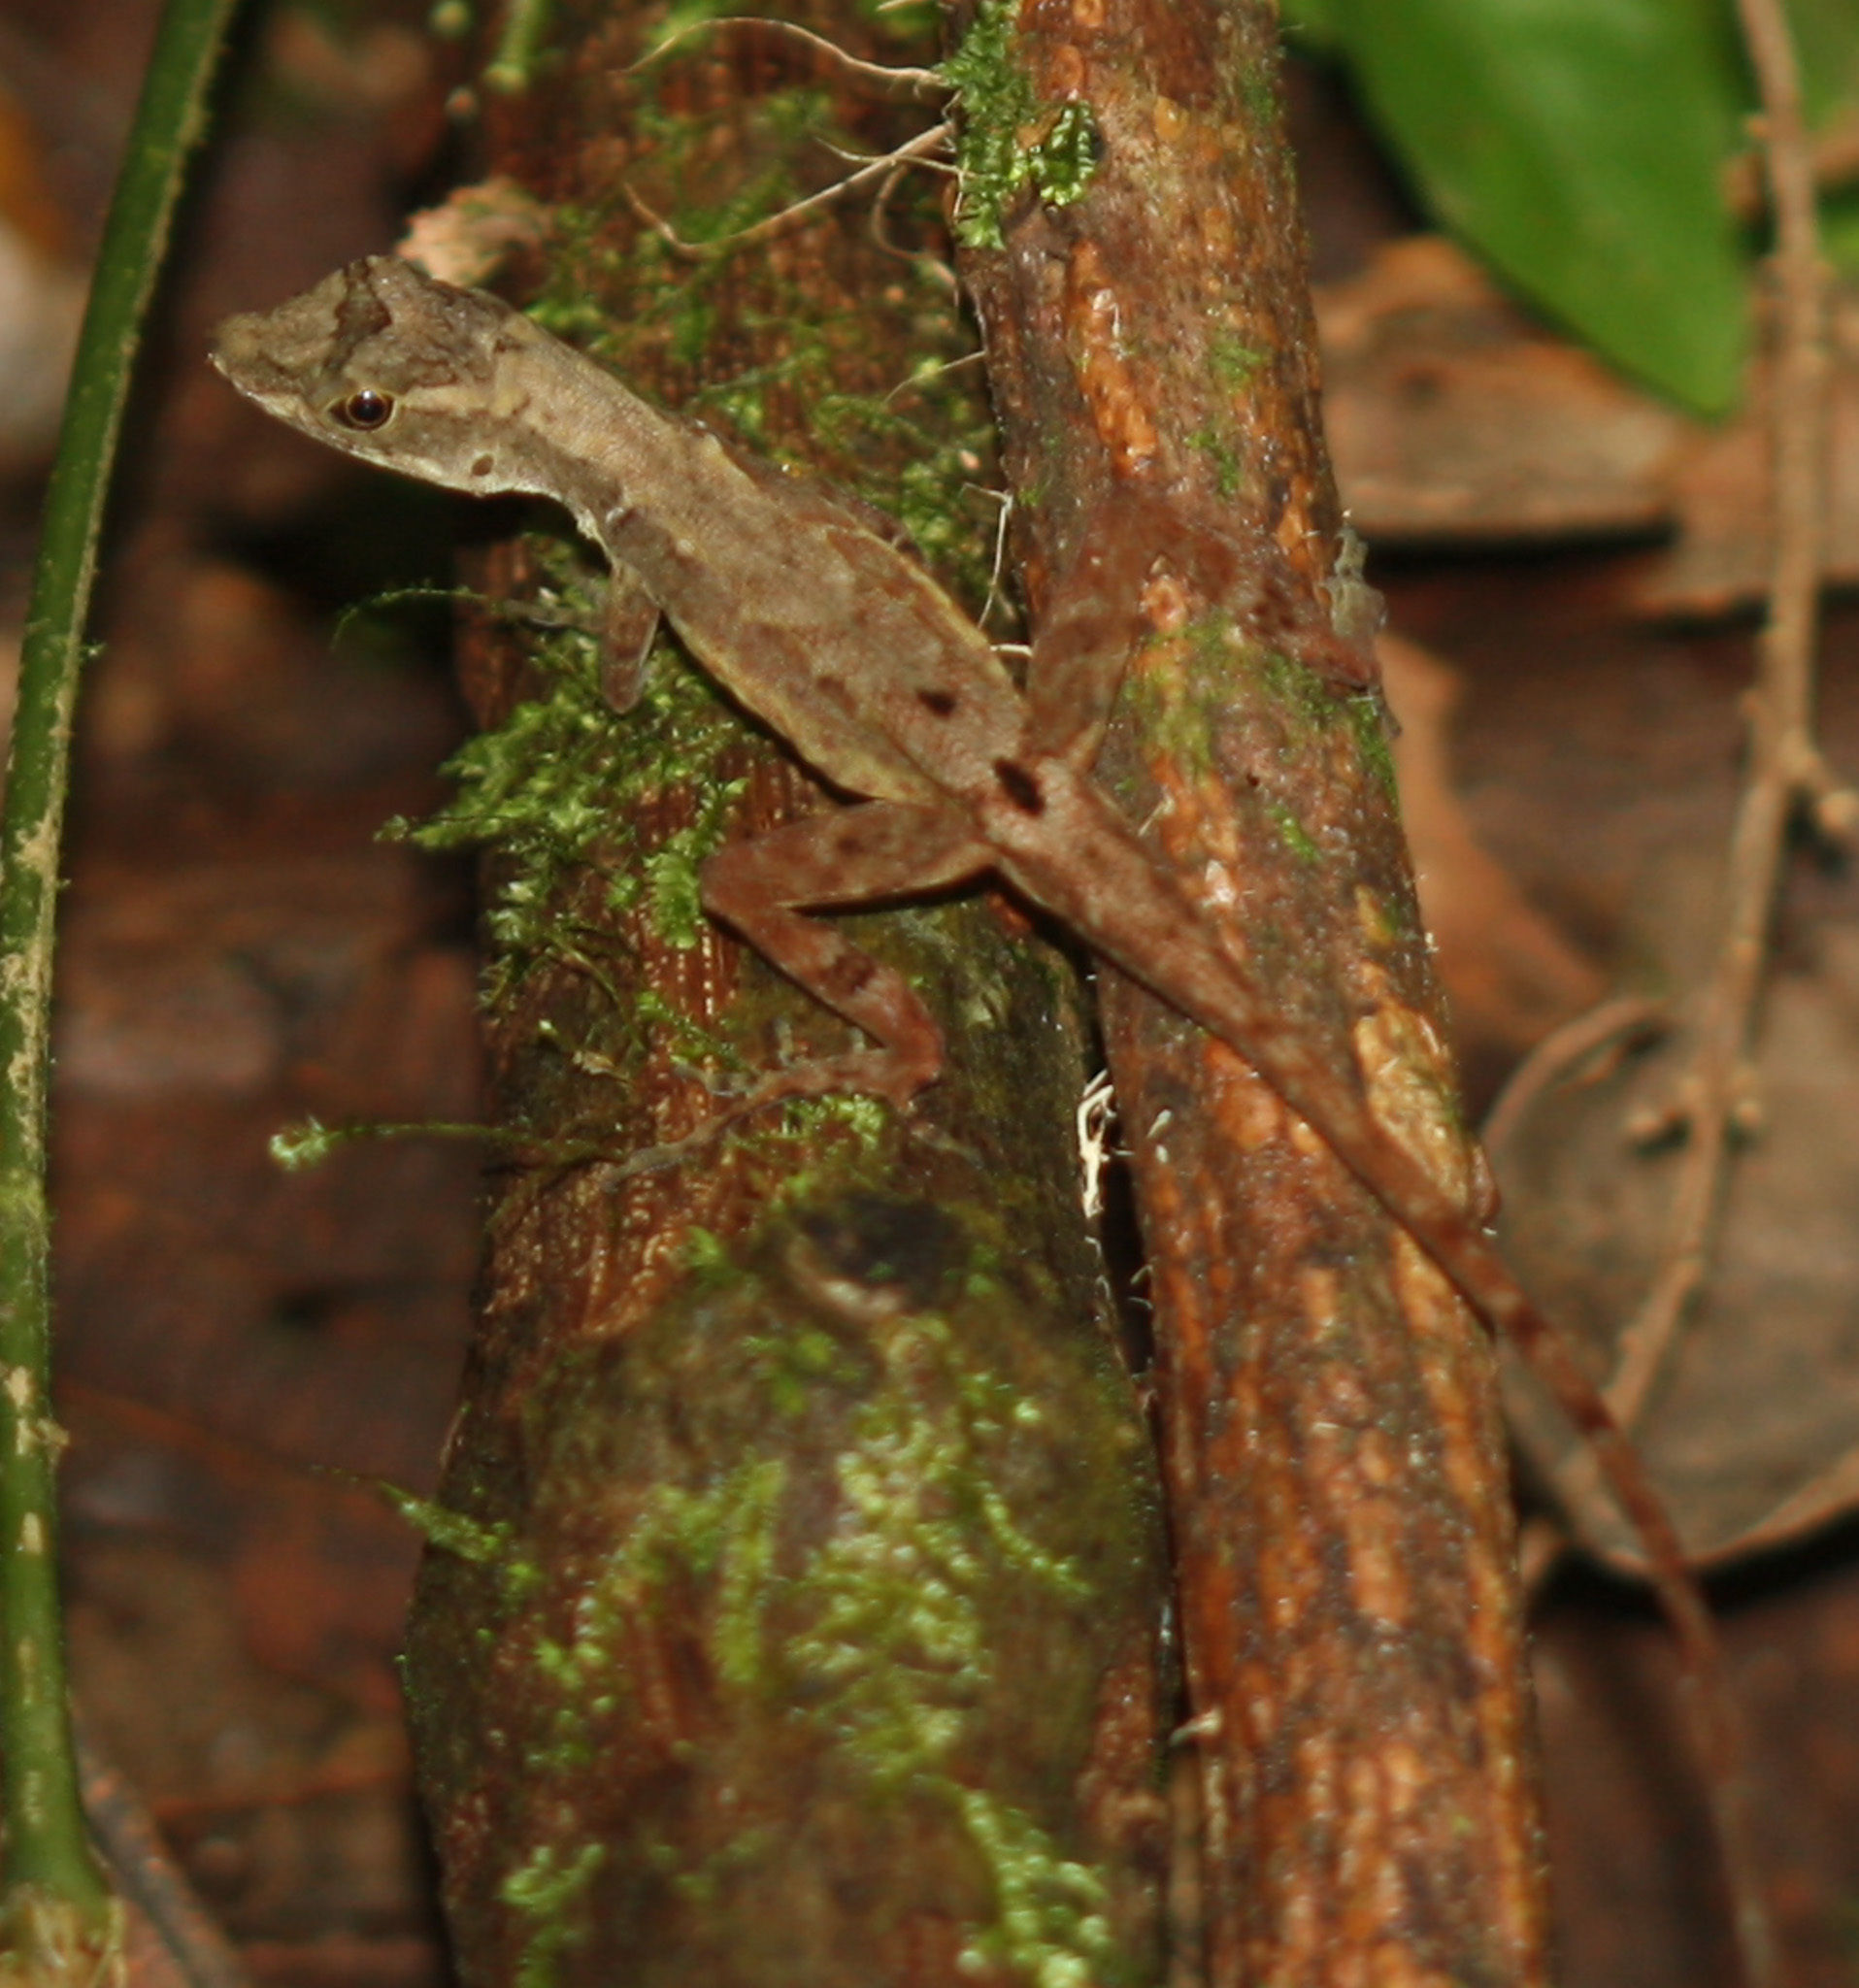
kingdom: Animalia
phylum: Chordata
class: Squamata
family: Dactyloidae
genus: Anolis
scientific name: Anolis humilis
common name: Humble anole
